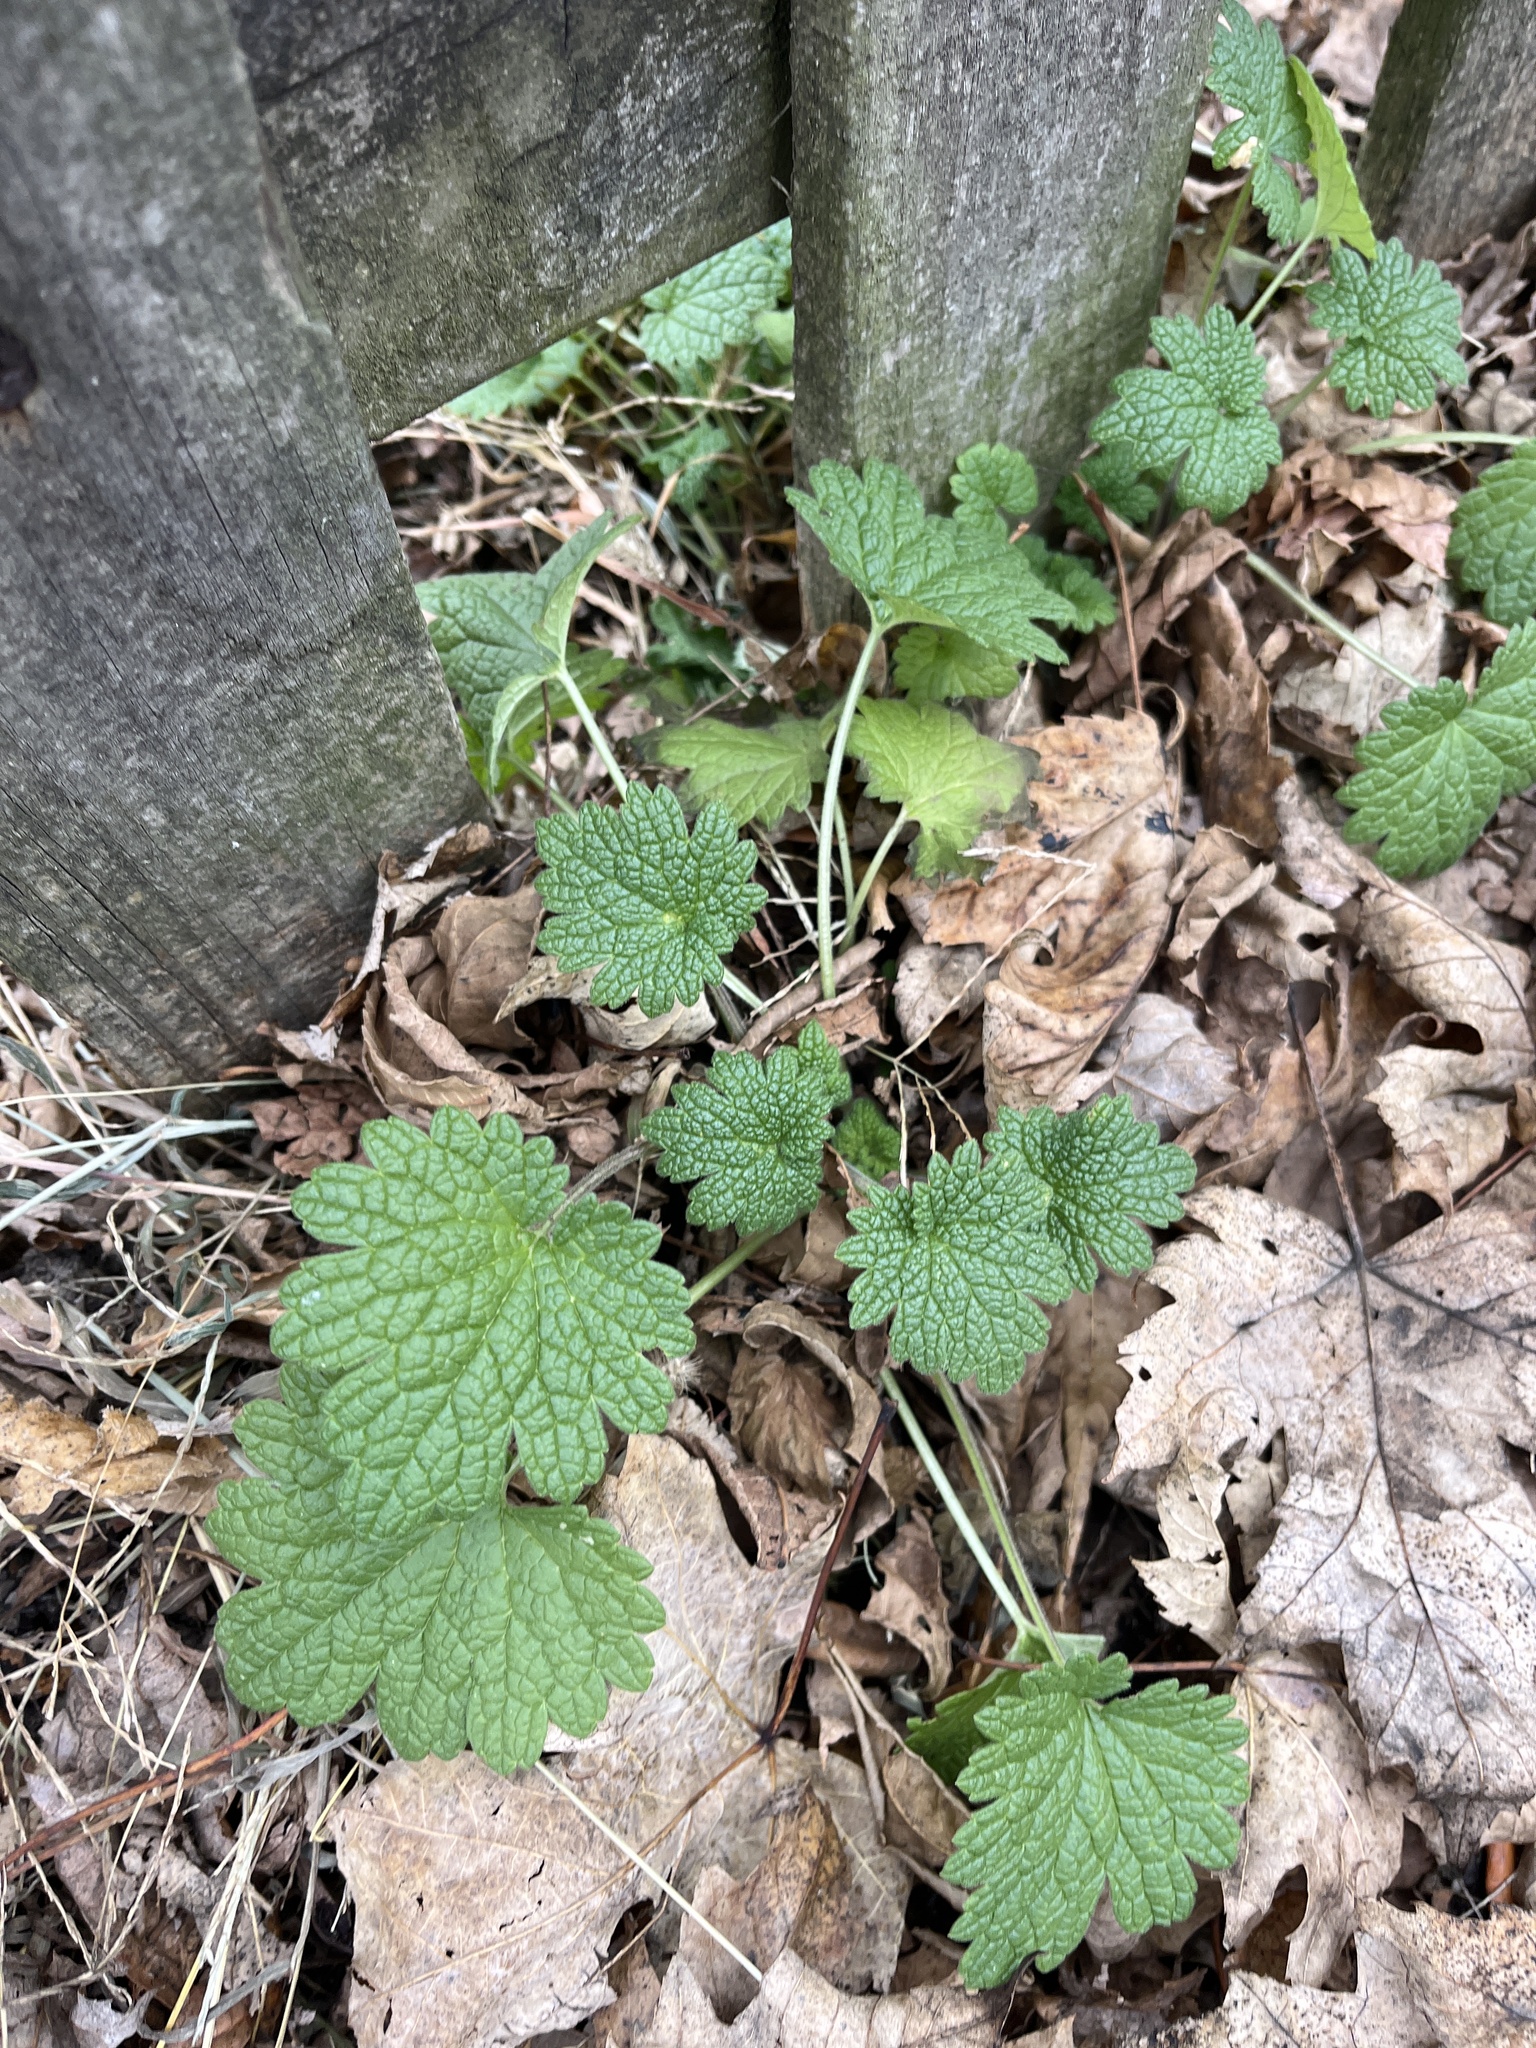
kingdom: Plantae
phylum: Tracheophyta
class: Magnoliopsida
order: Lamiales
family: Lamiaceae
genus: Leonurus
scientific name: Leonurus cardiaca
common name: Motherwort
